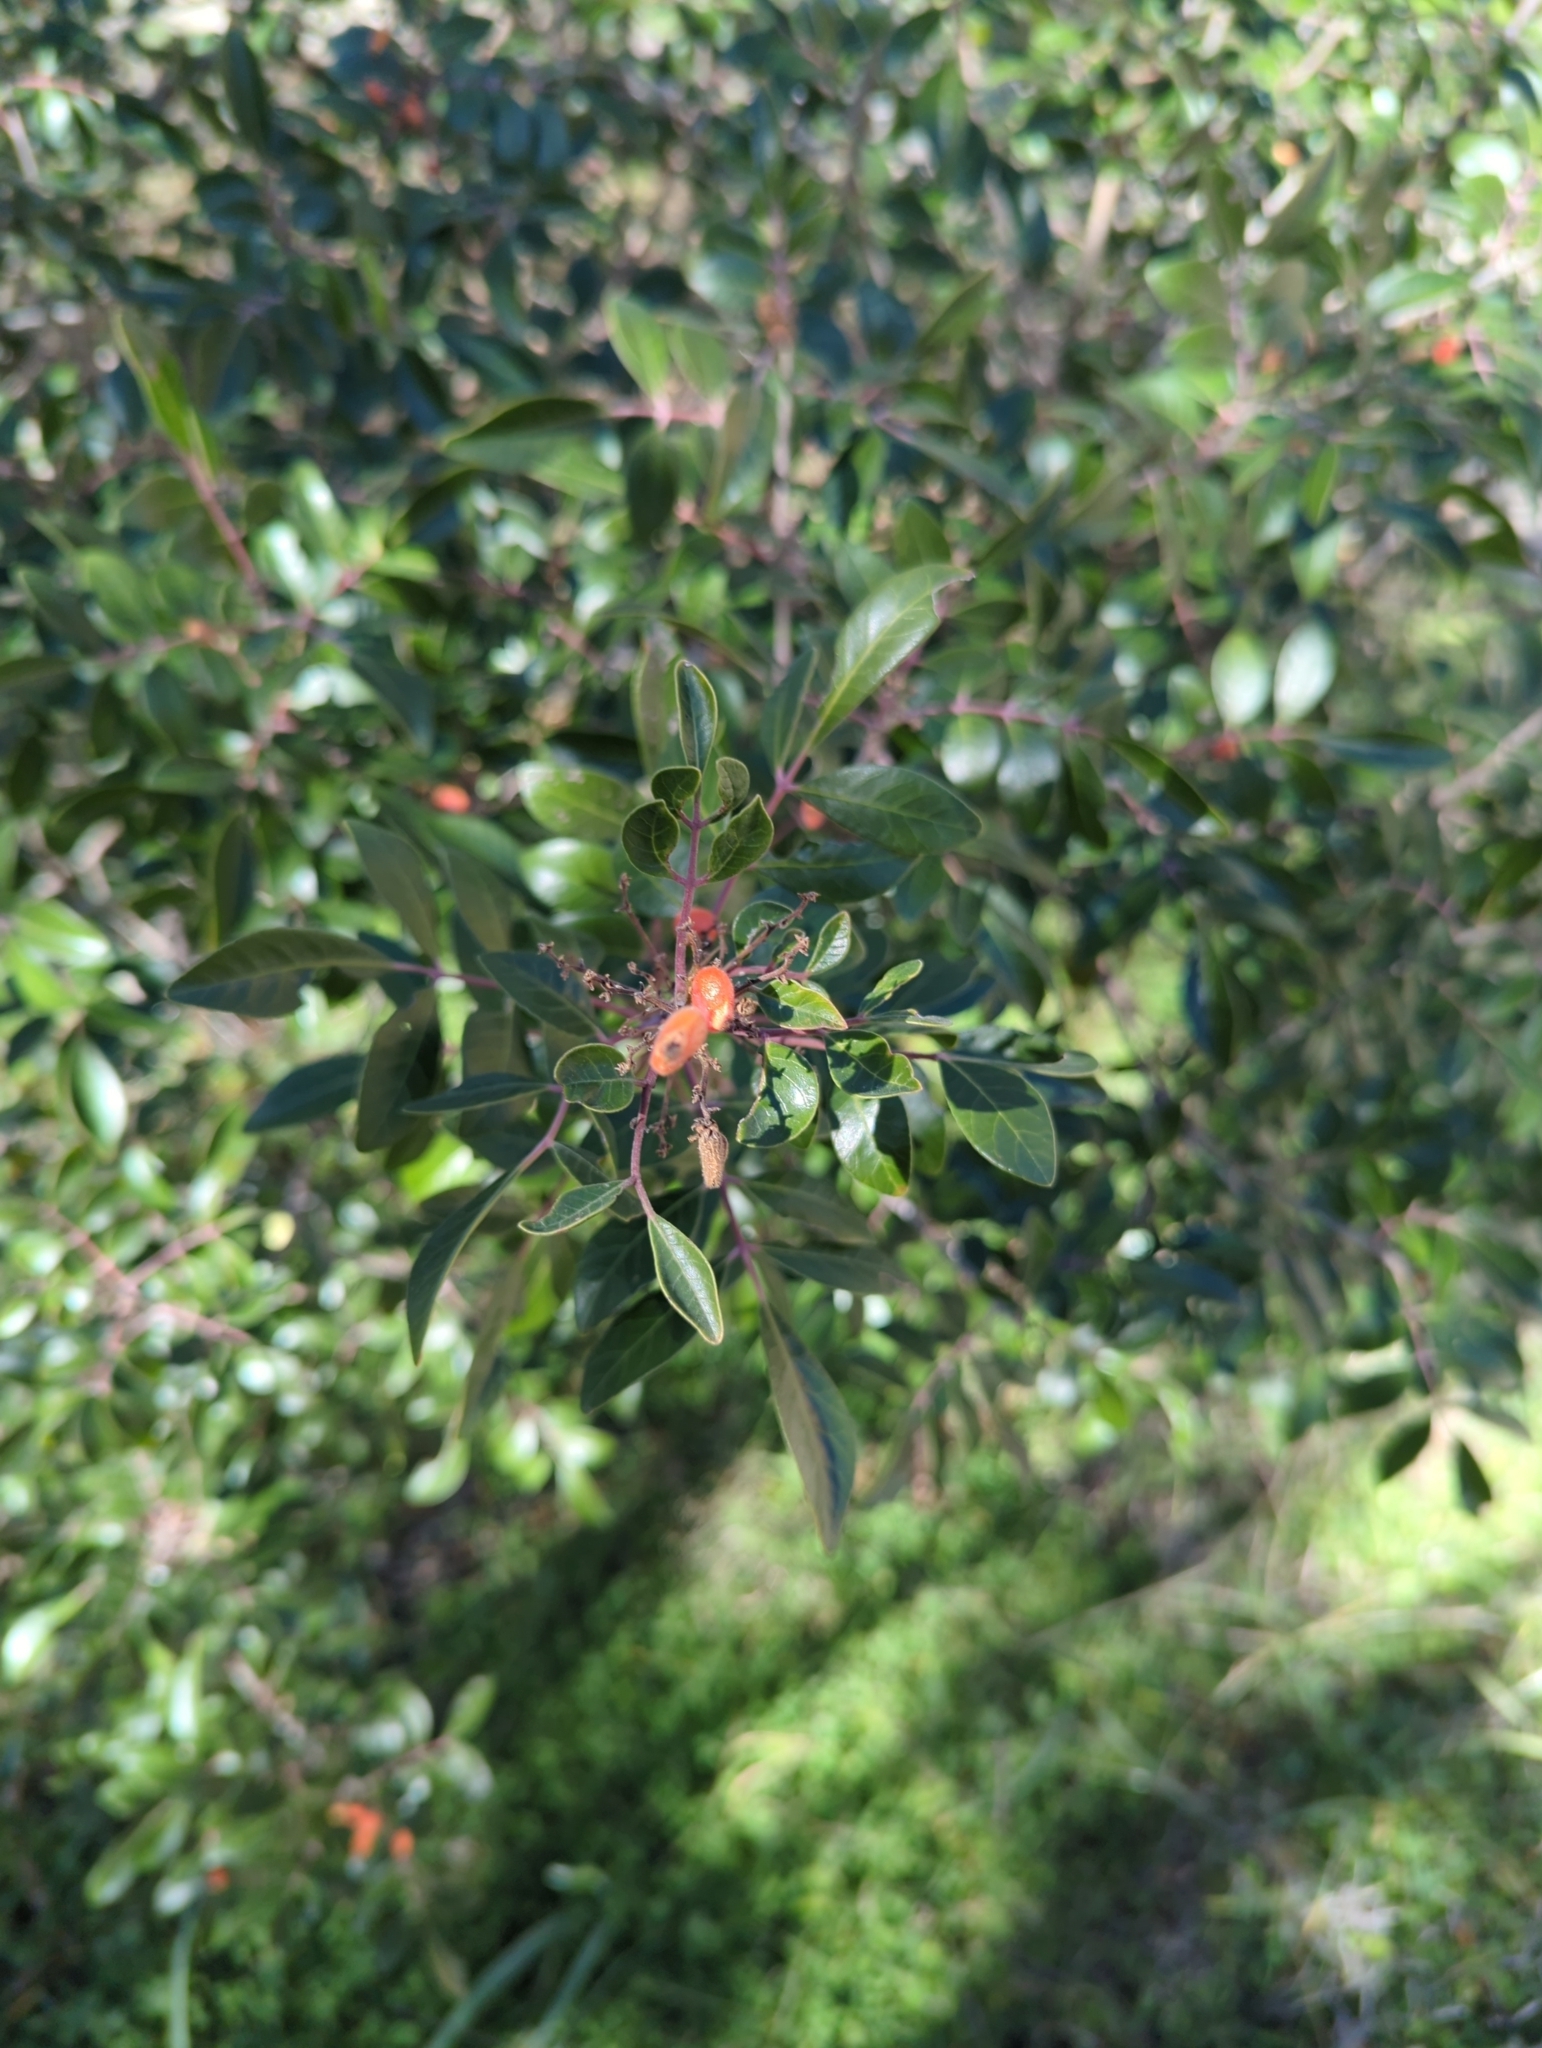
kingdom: Plantae
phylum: Tracheophyta
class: Magnoliopsida
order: Sapindales
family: Anacardiaceae
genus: Rhus
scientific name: Rhus virens
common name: Evergreen sumac
